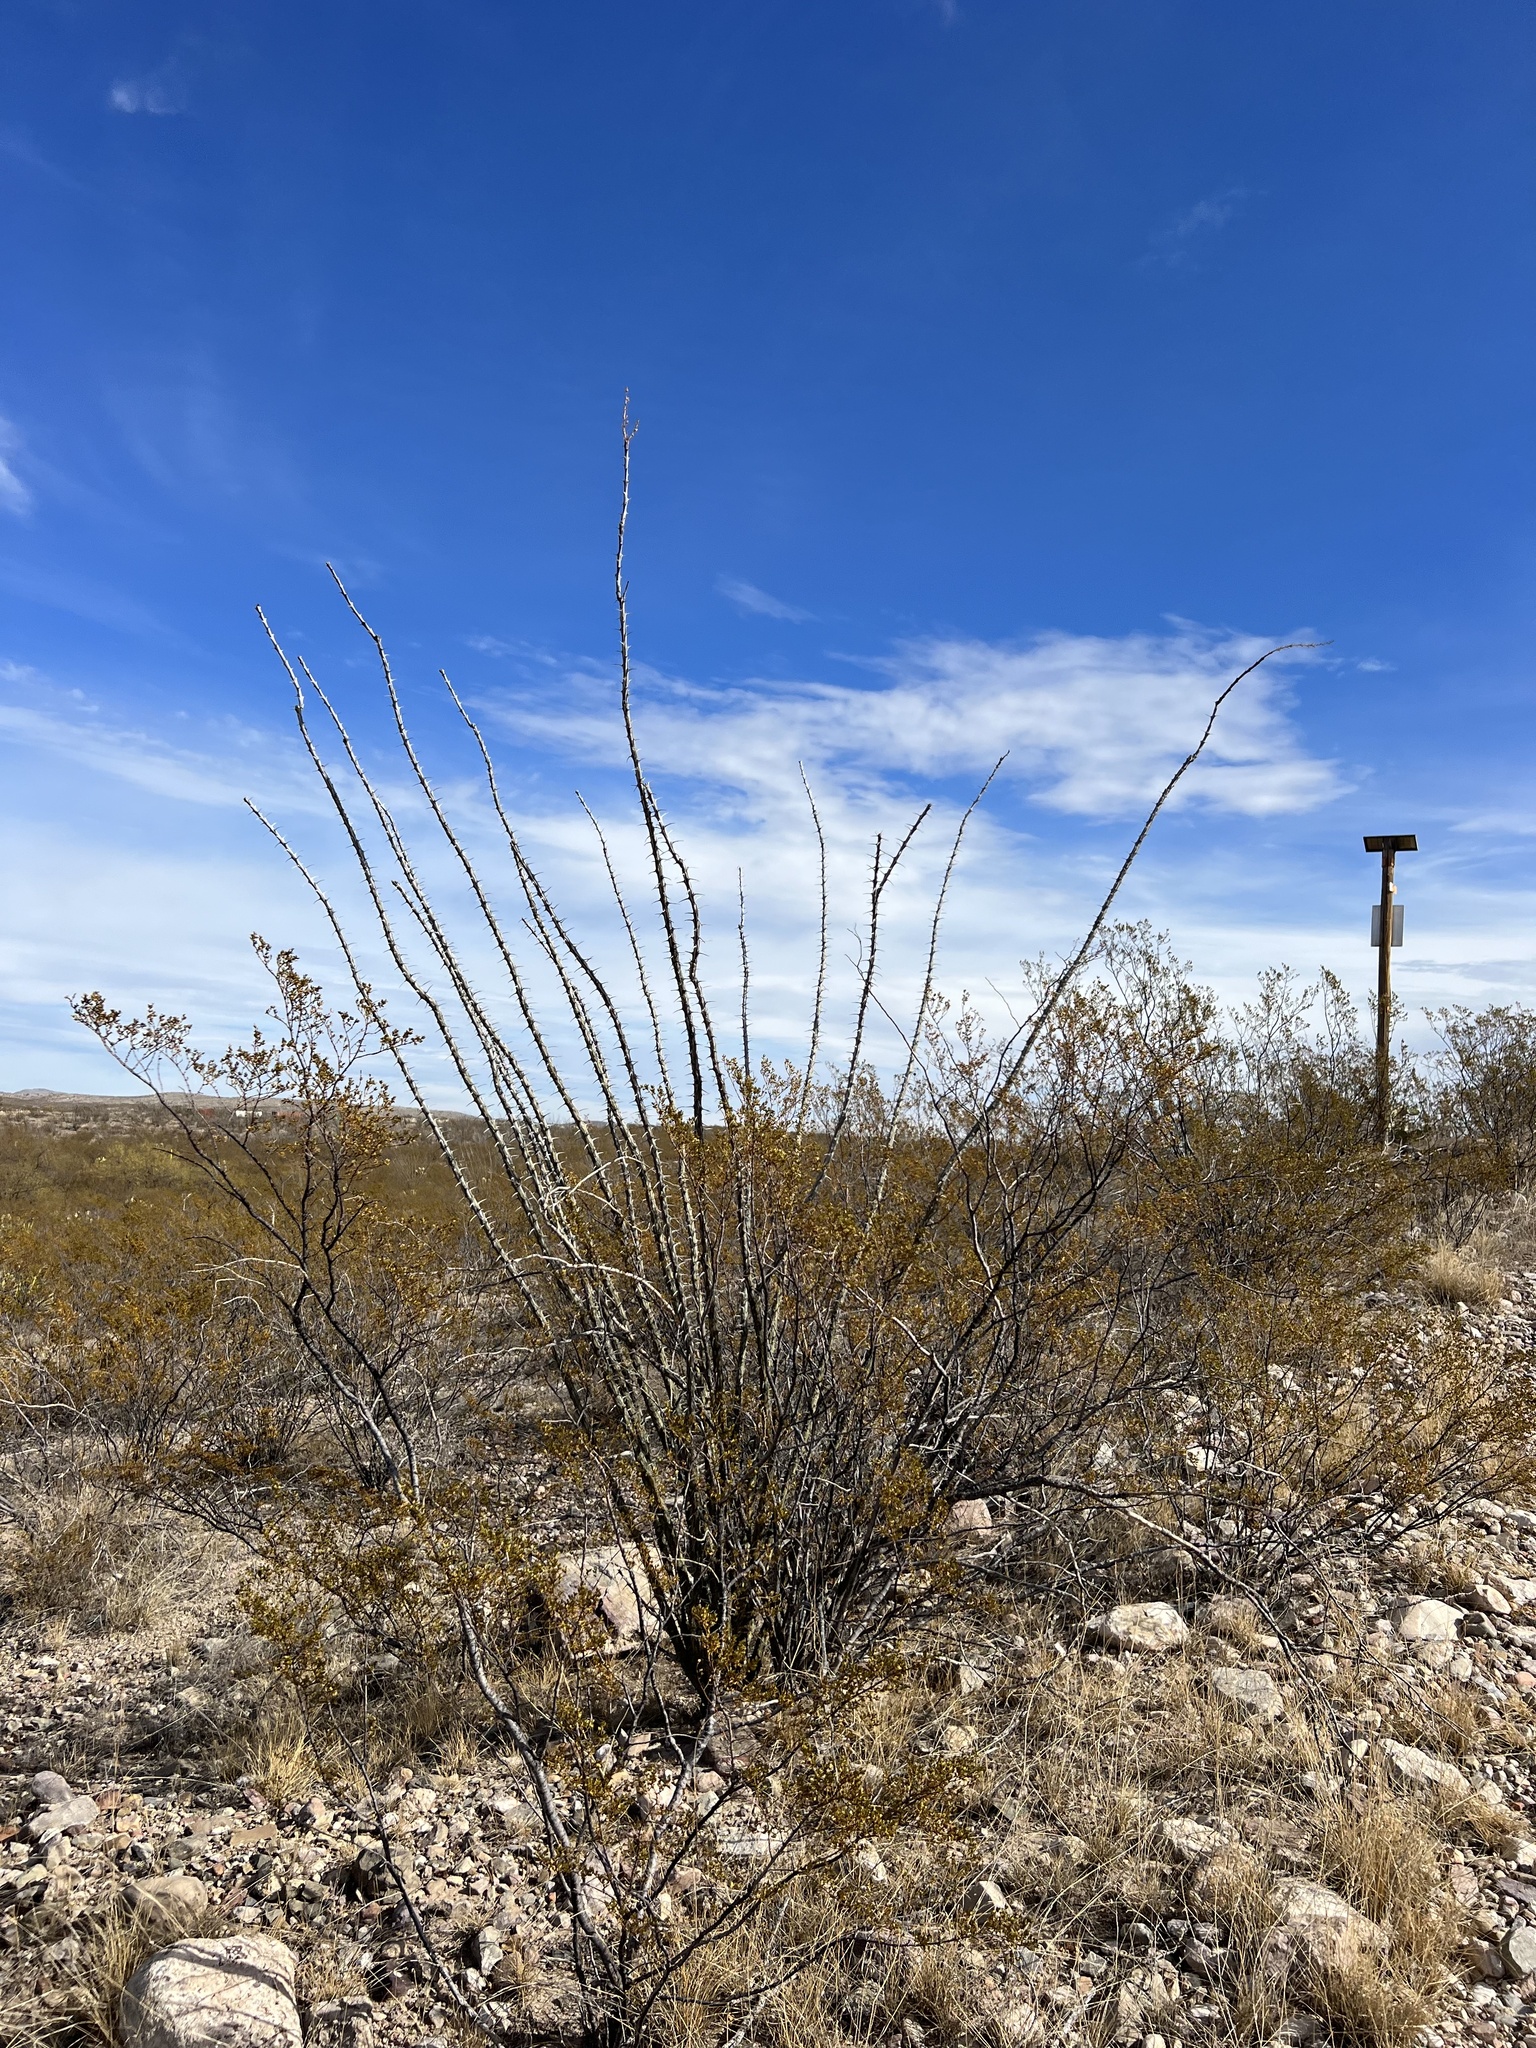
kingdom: Plantae
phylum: Tracheophyta
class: Magnoliopsida
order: Ericales
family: Fouquieriaceae
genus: Fouquieria
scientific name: Fouquieria splendens
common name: Vine-cactus
